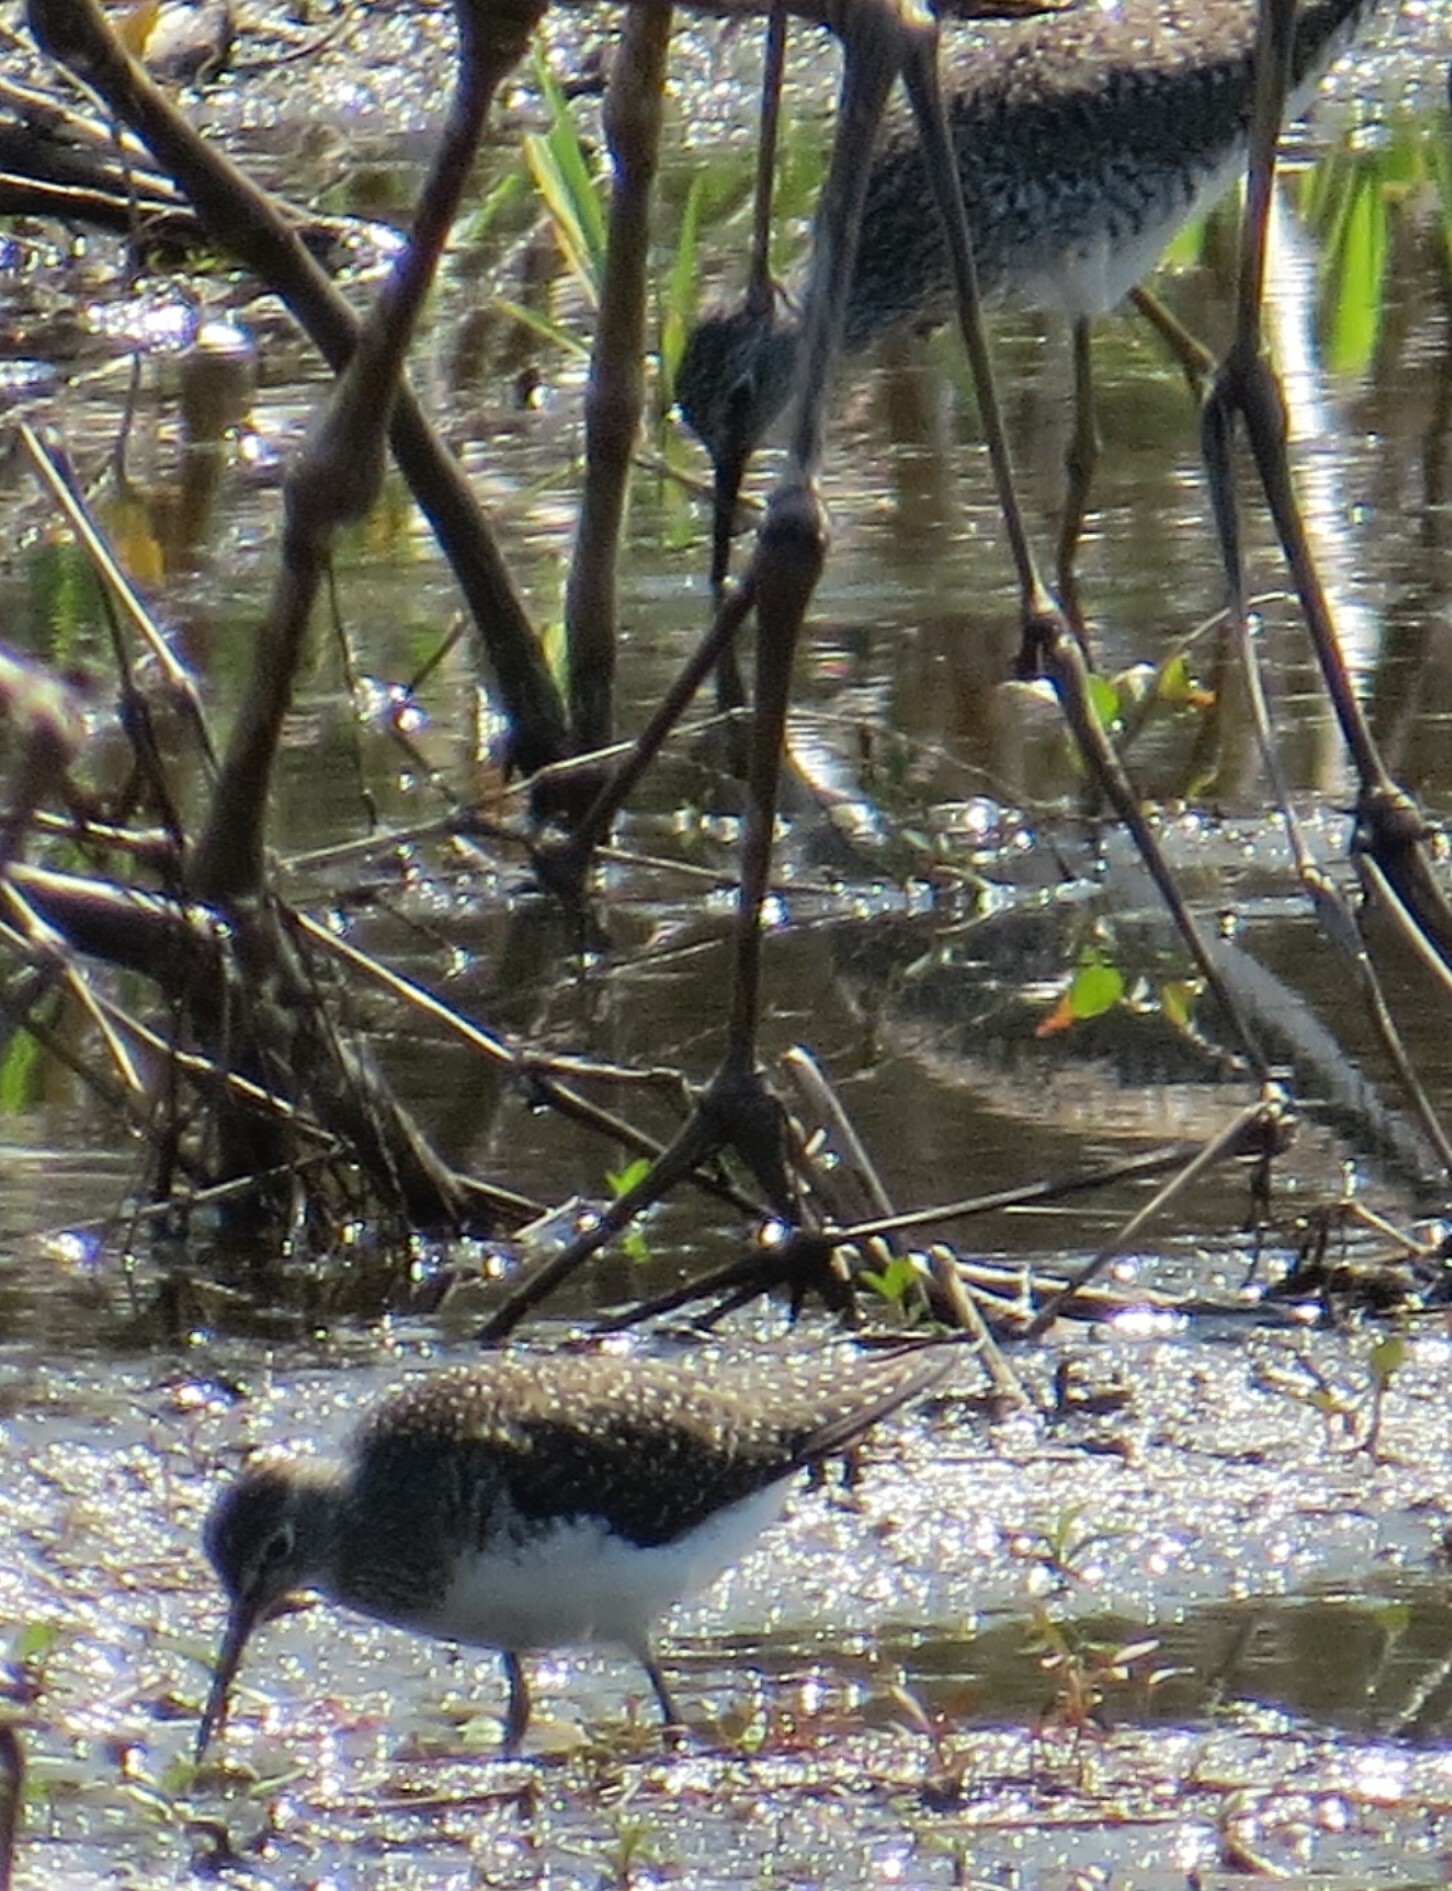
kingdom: Animalia
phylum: Chordata
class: Aves
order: Charadriiformes
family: Scolopacidae
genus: Tringa
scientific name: Tringa solitaria
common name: Solitary sandpiper
